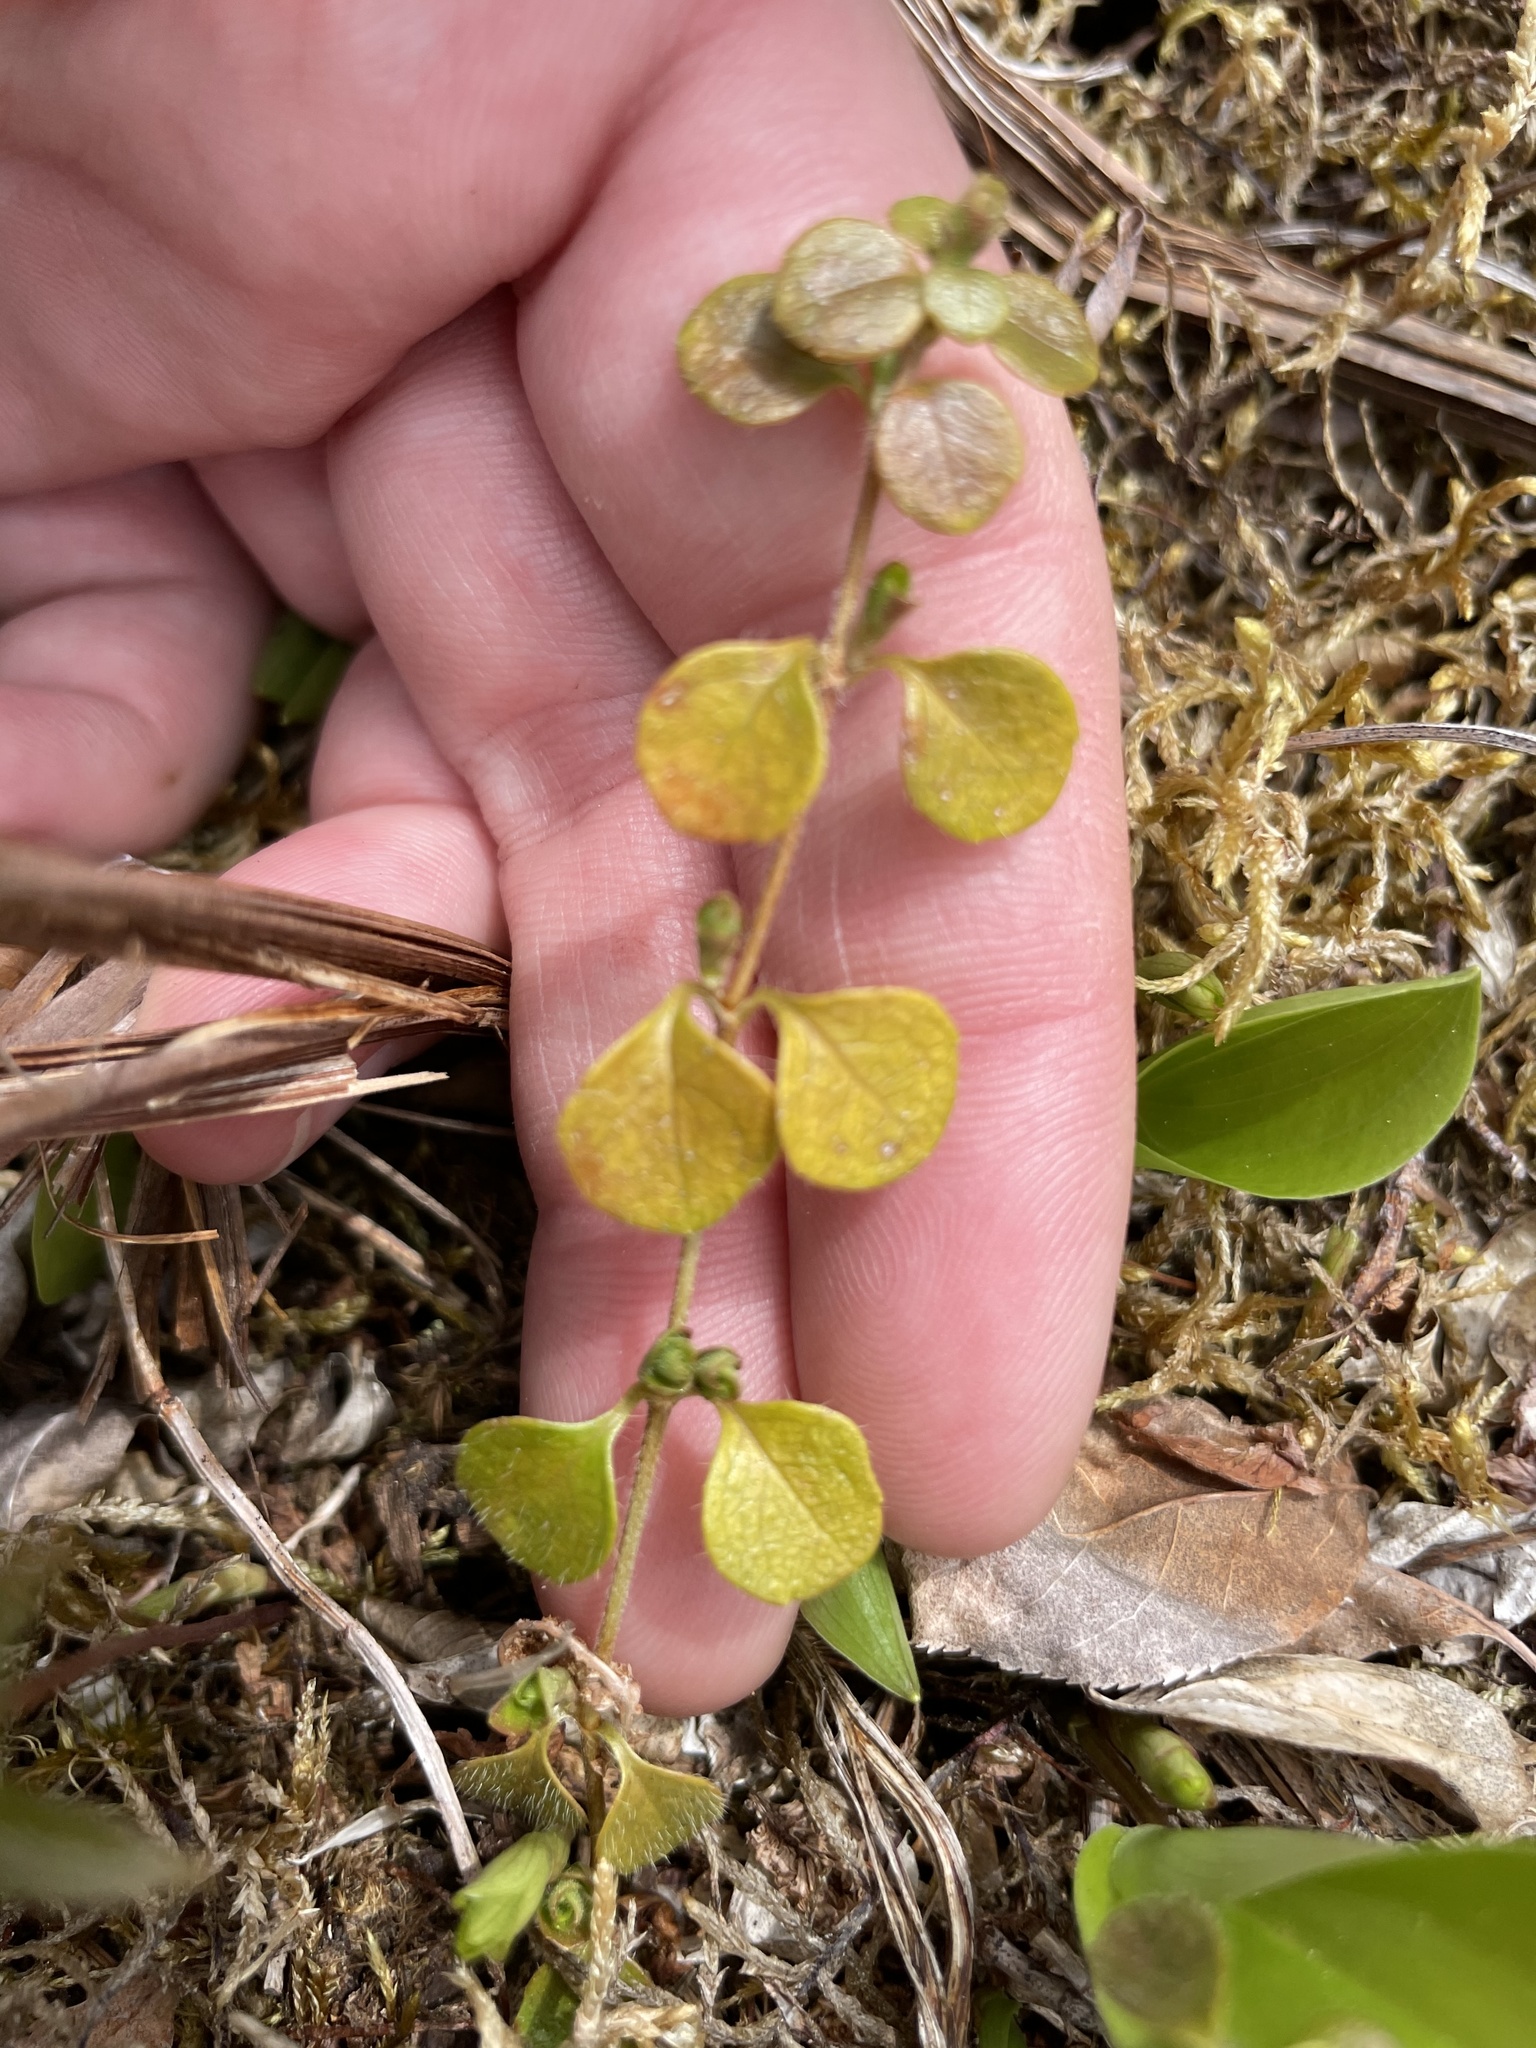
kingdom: Plantae
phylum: Tracheophyta
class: Magnoliopsida
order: Dipsacales
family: Caprifoliaceae
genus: Linnaea
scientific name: Linnaea borealis
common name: Twinflower
